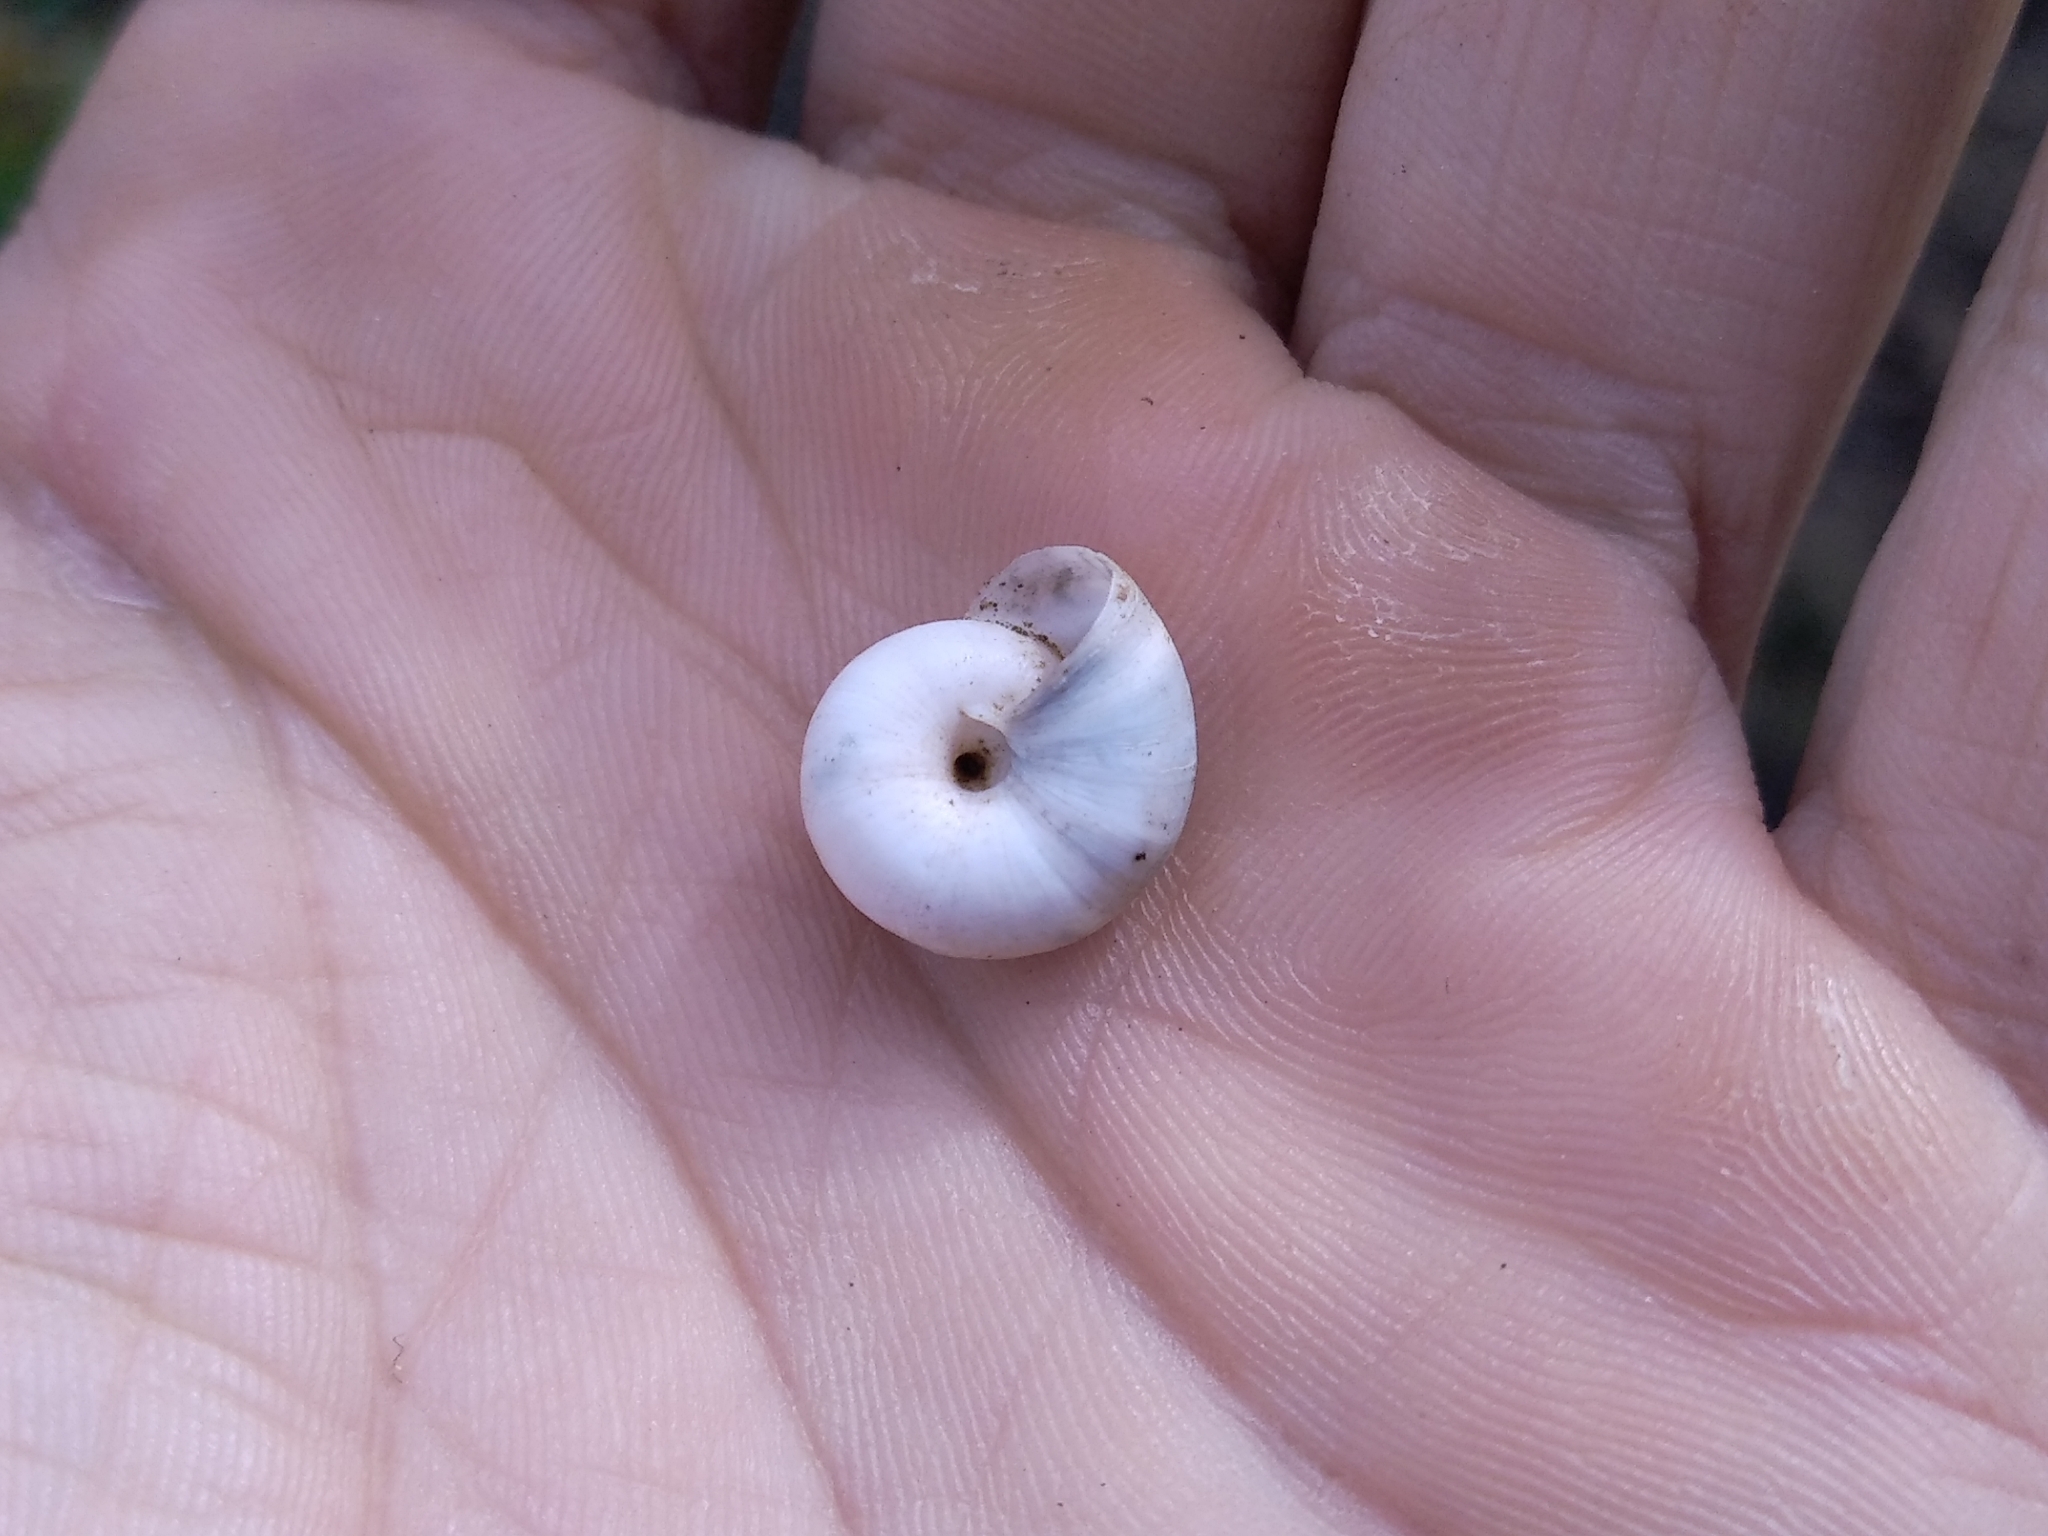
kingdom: Animalia
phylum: Mollusca
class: Gastropoda
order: Stylommatophora
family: Geomitridae
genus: Xeropicta
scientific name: Xeropicta derbentina
